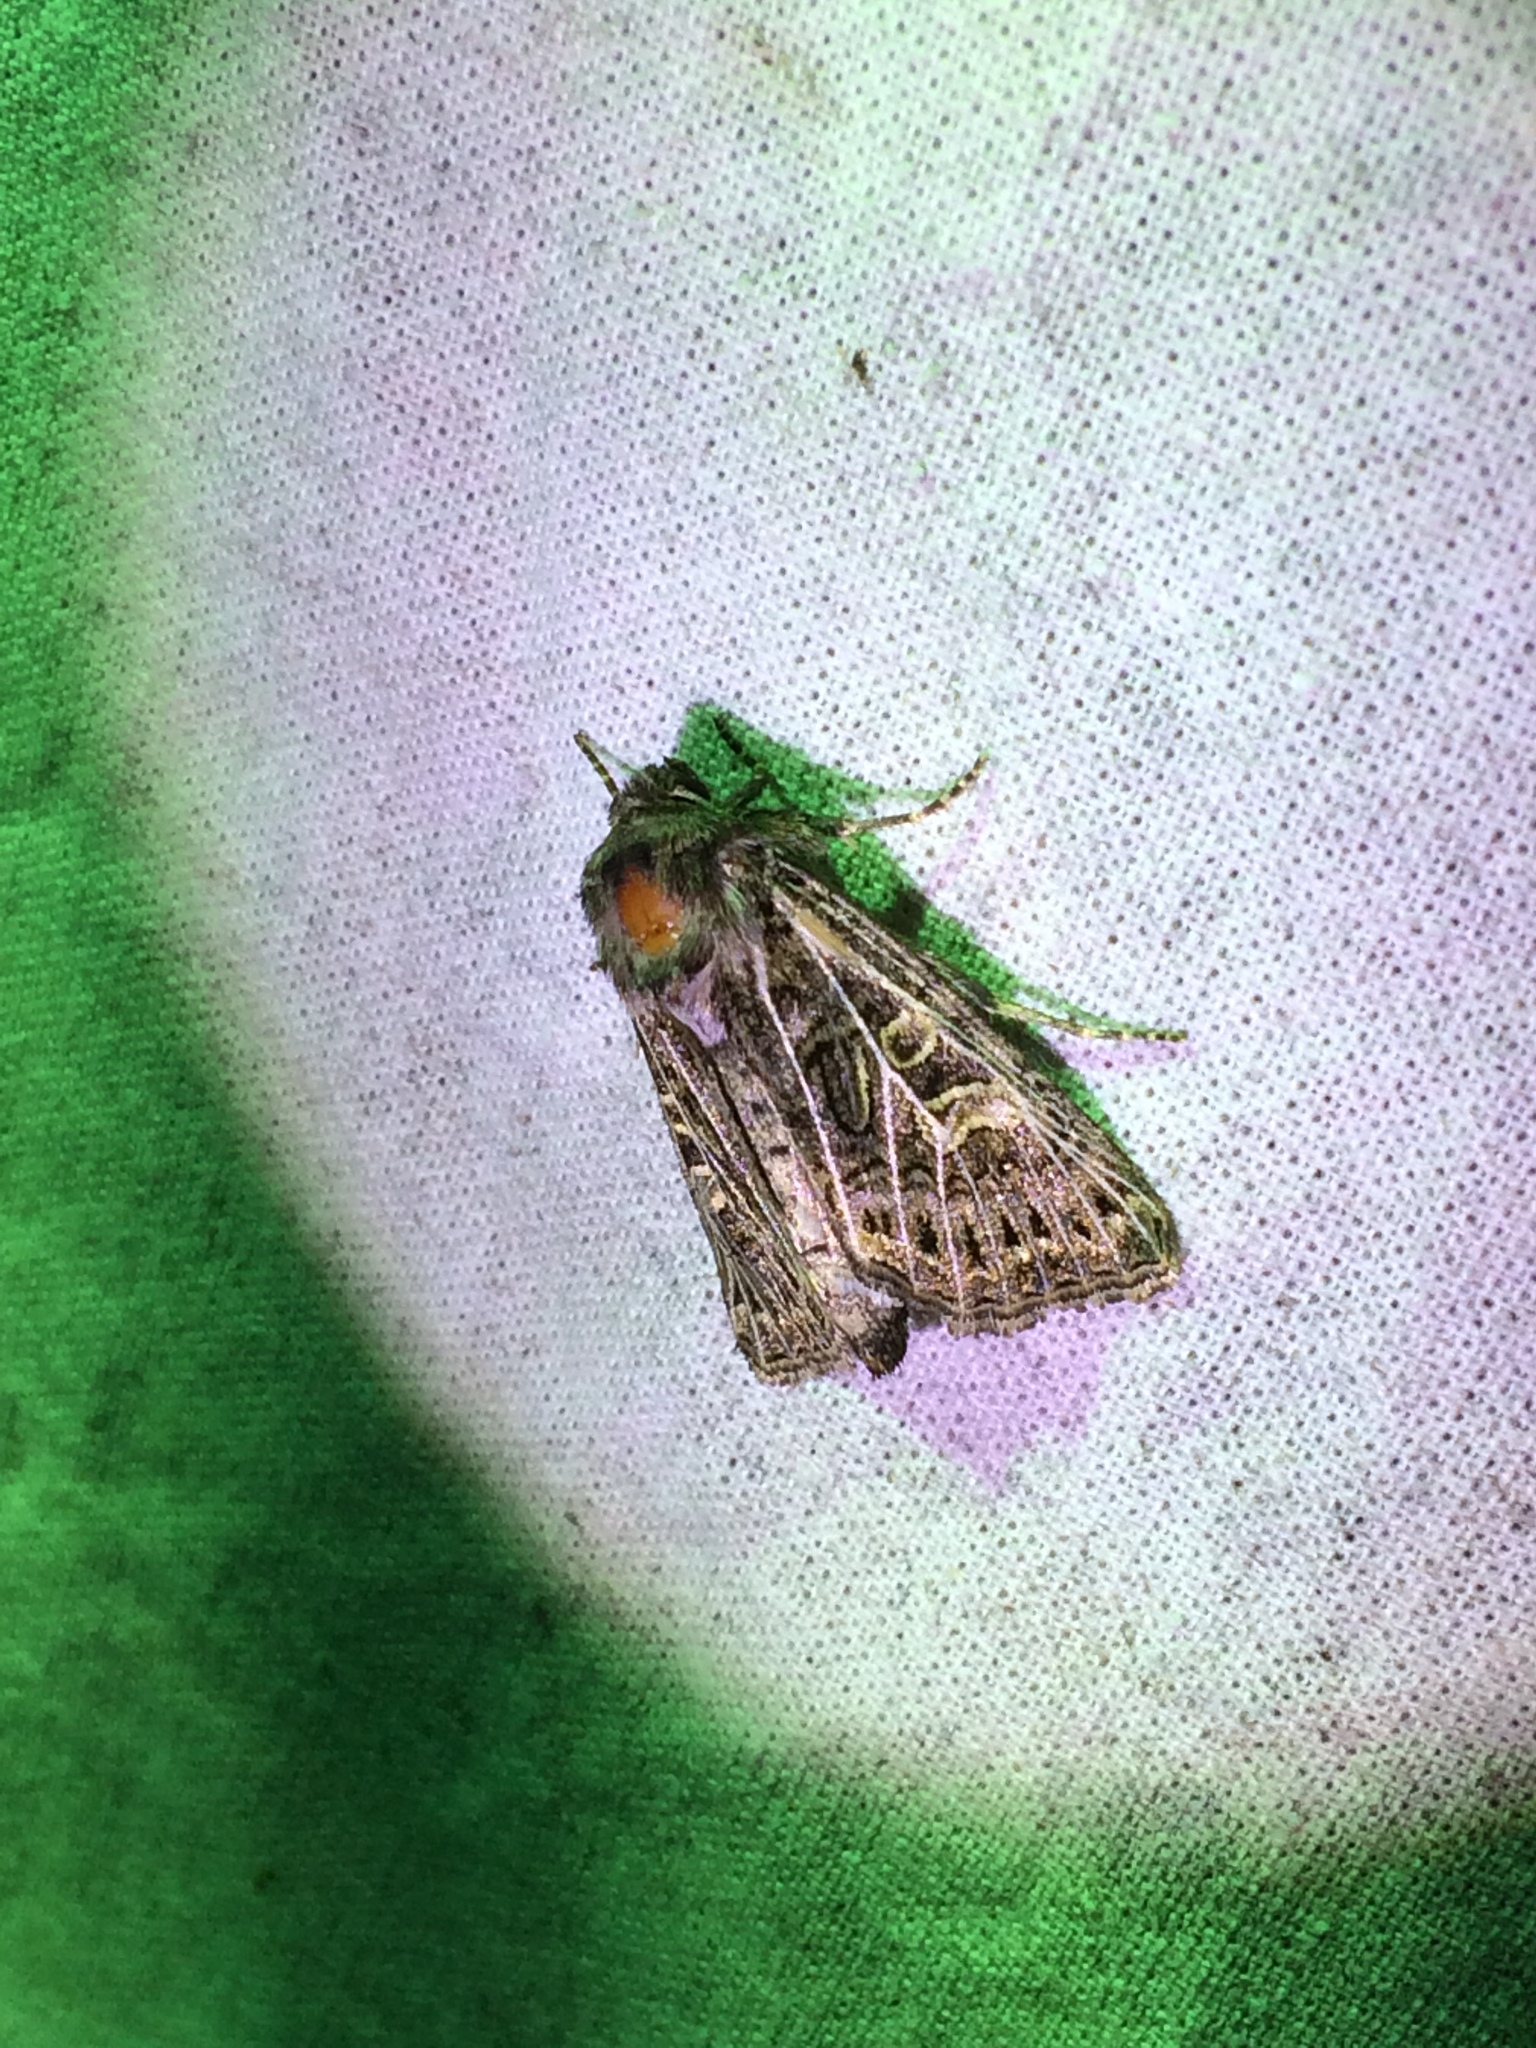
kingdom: Animalia
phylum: Arthropoda
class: Insecta
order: Lepidoptera
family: Noctuidae
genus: Tholera
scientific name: Tholera decimalis
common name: Feathered gothic
